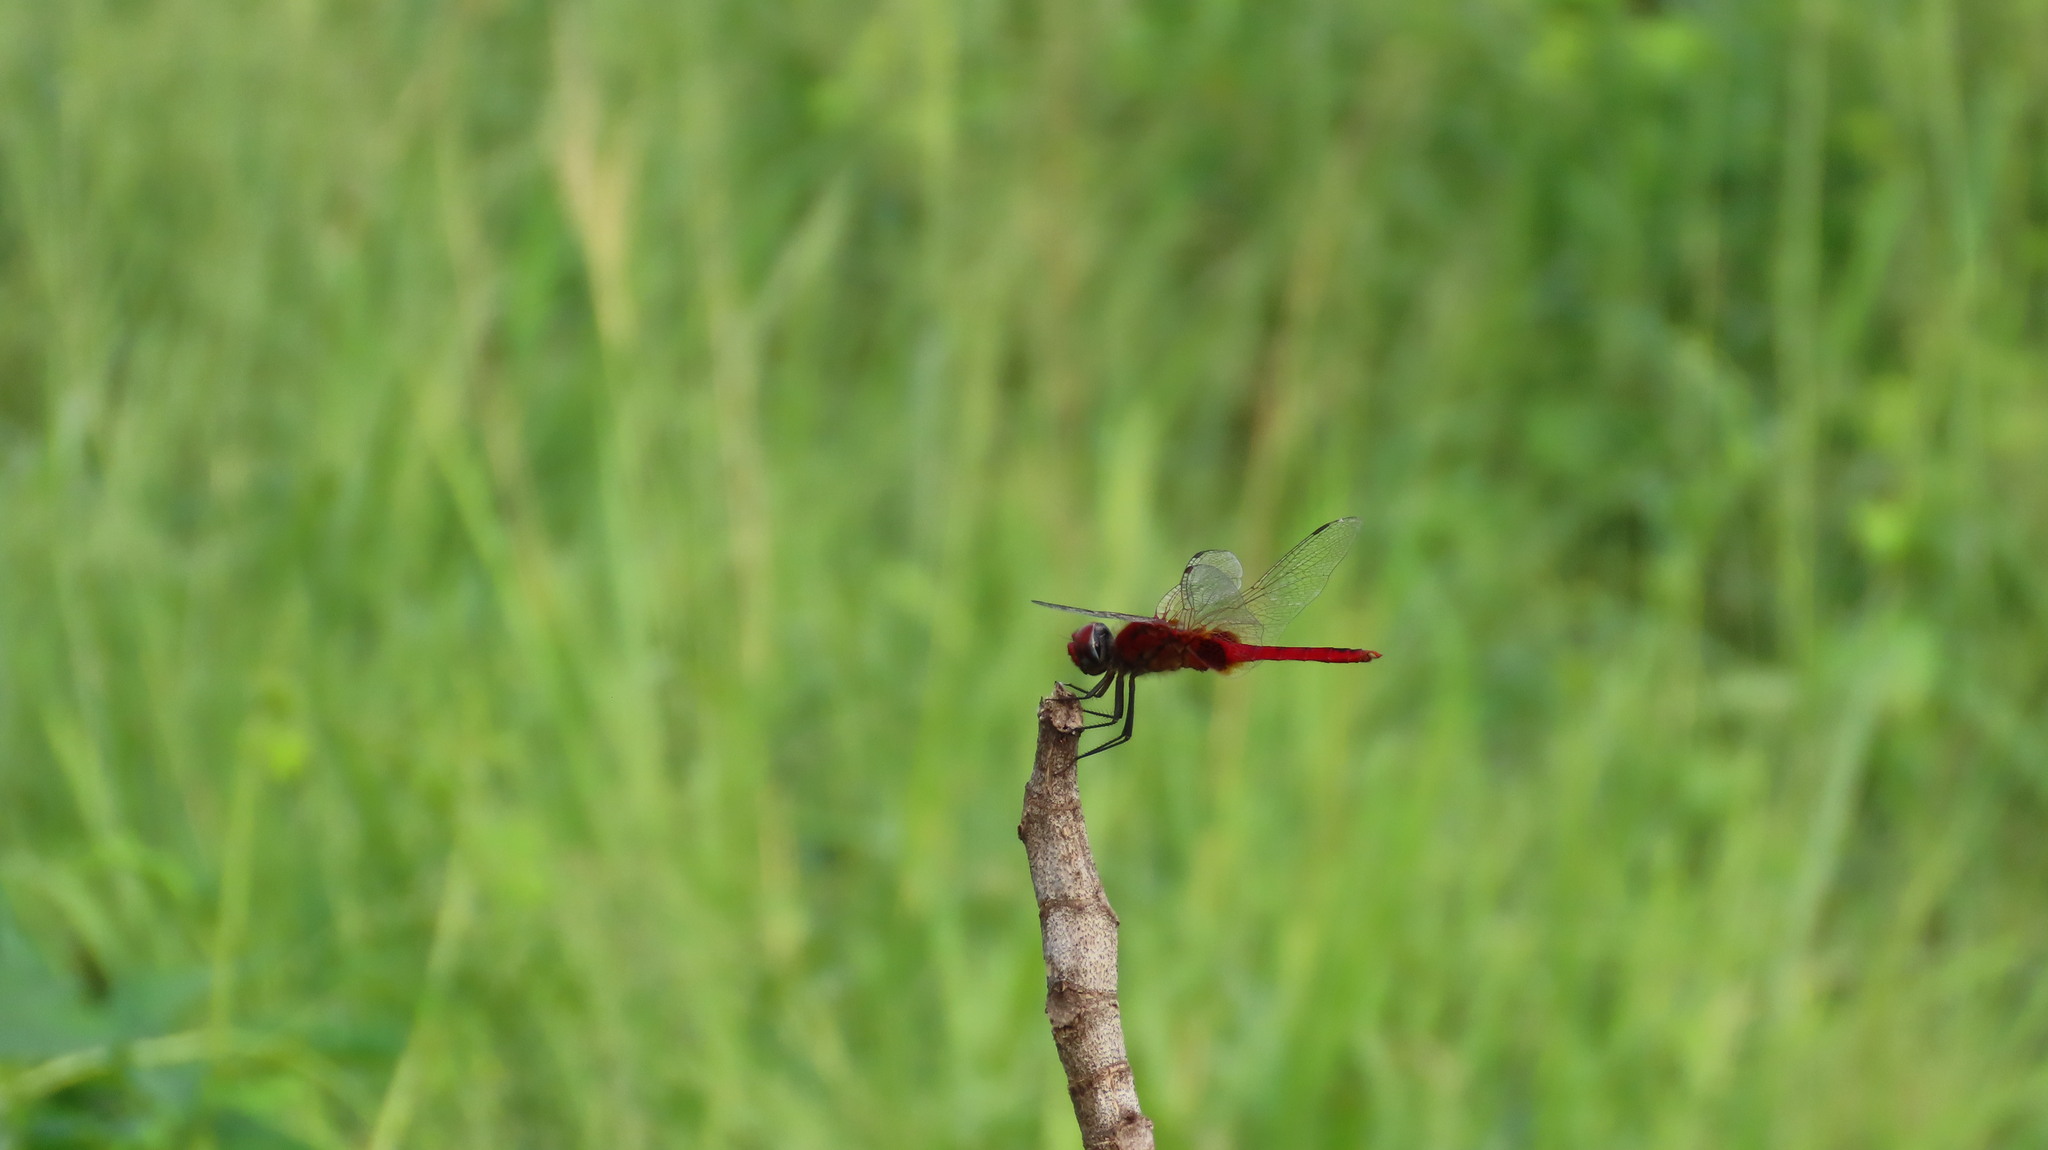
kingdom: Animalia
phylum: Arthropoda
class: Insecta
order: Odonata
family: Libellulidae
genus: Urothemis
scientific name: Urothemis signata
